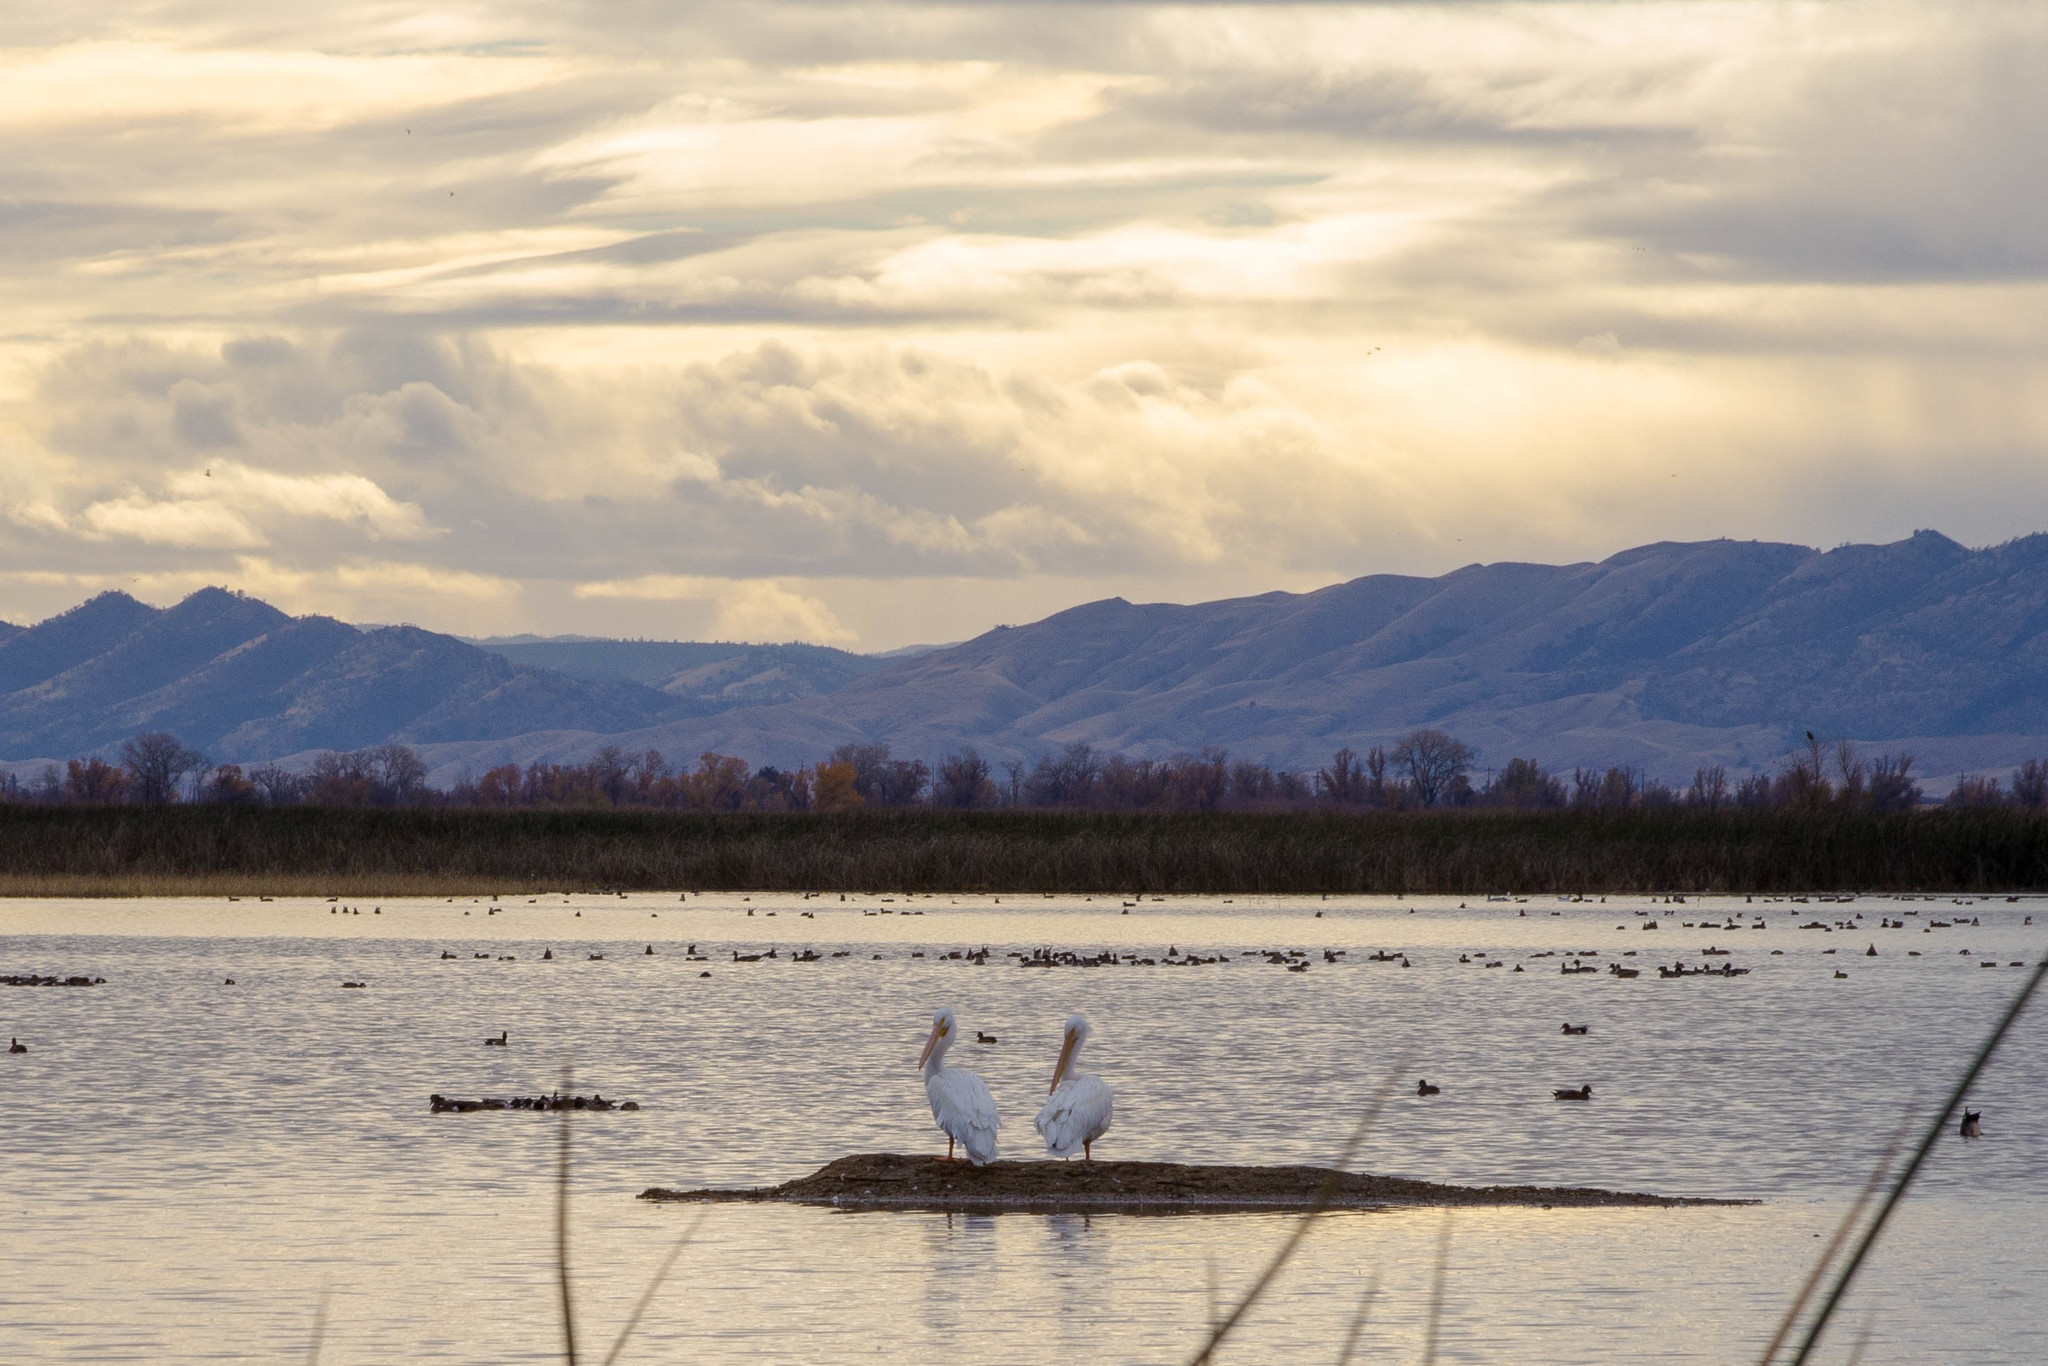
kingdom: Animalia
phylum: Chordata
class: Aves
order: Pelecaniformes
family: Pelecanidae
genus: Pelecanus
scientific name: Pelecanus erythrorhynchos
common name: American white pelican
